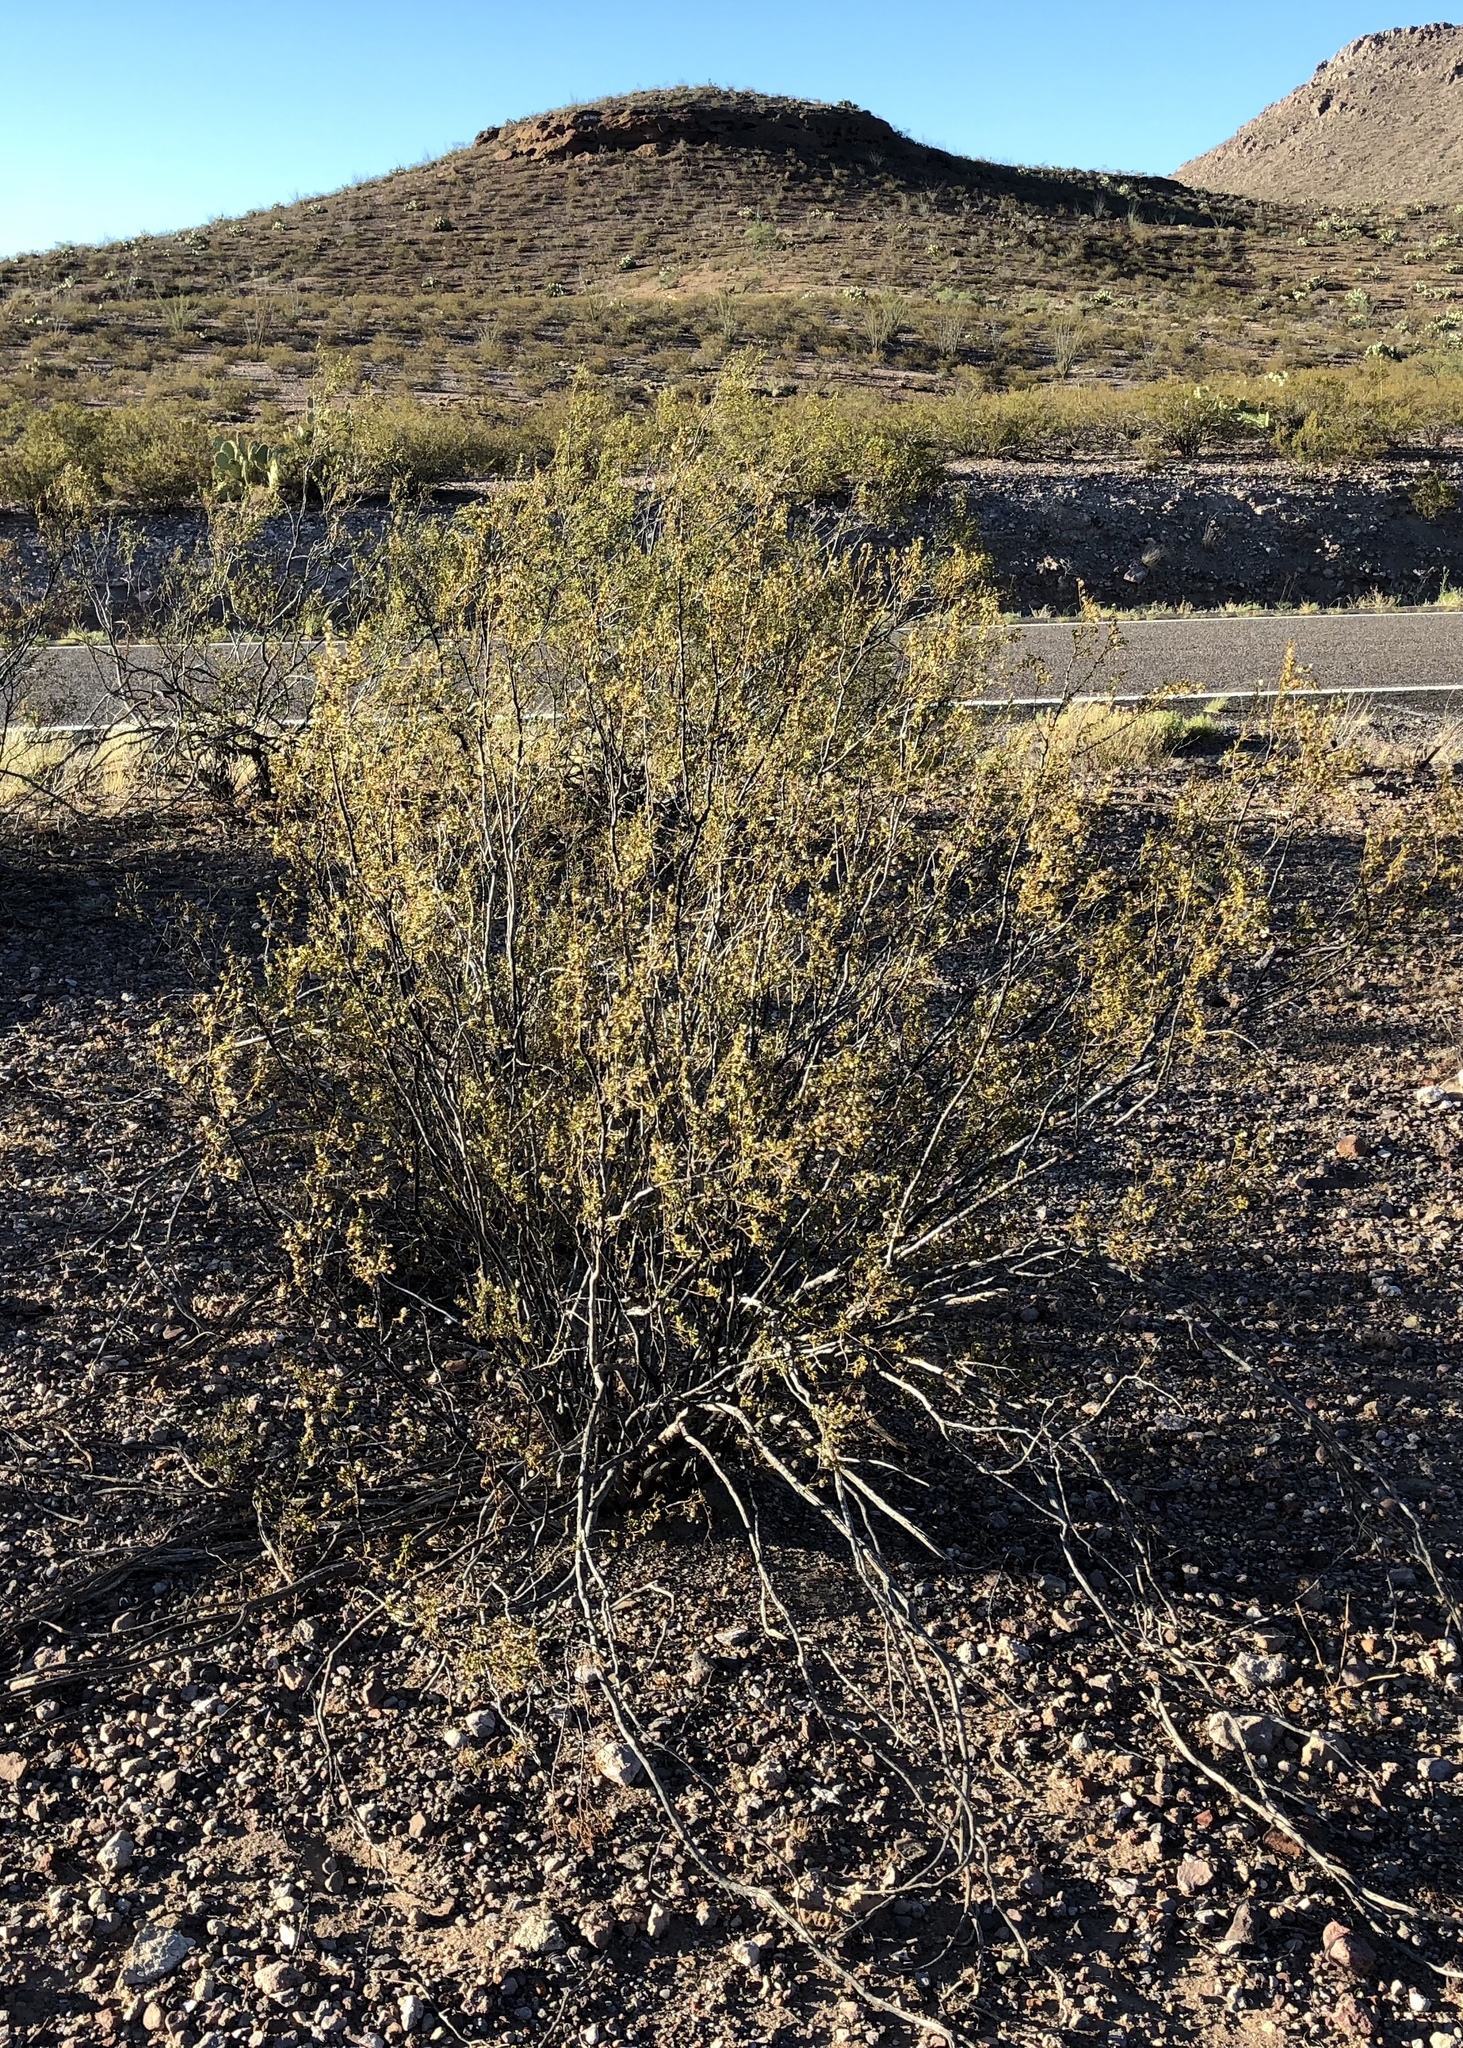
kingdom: Plantae
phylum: Tracheophyta
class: Magnoliopsida
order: Zygophyllales
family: Zygophyllaceae
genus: Larrea
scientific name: Larrea tridentata
